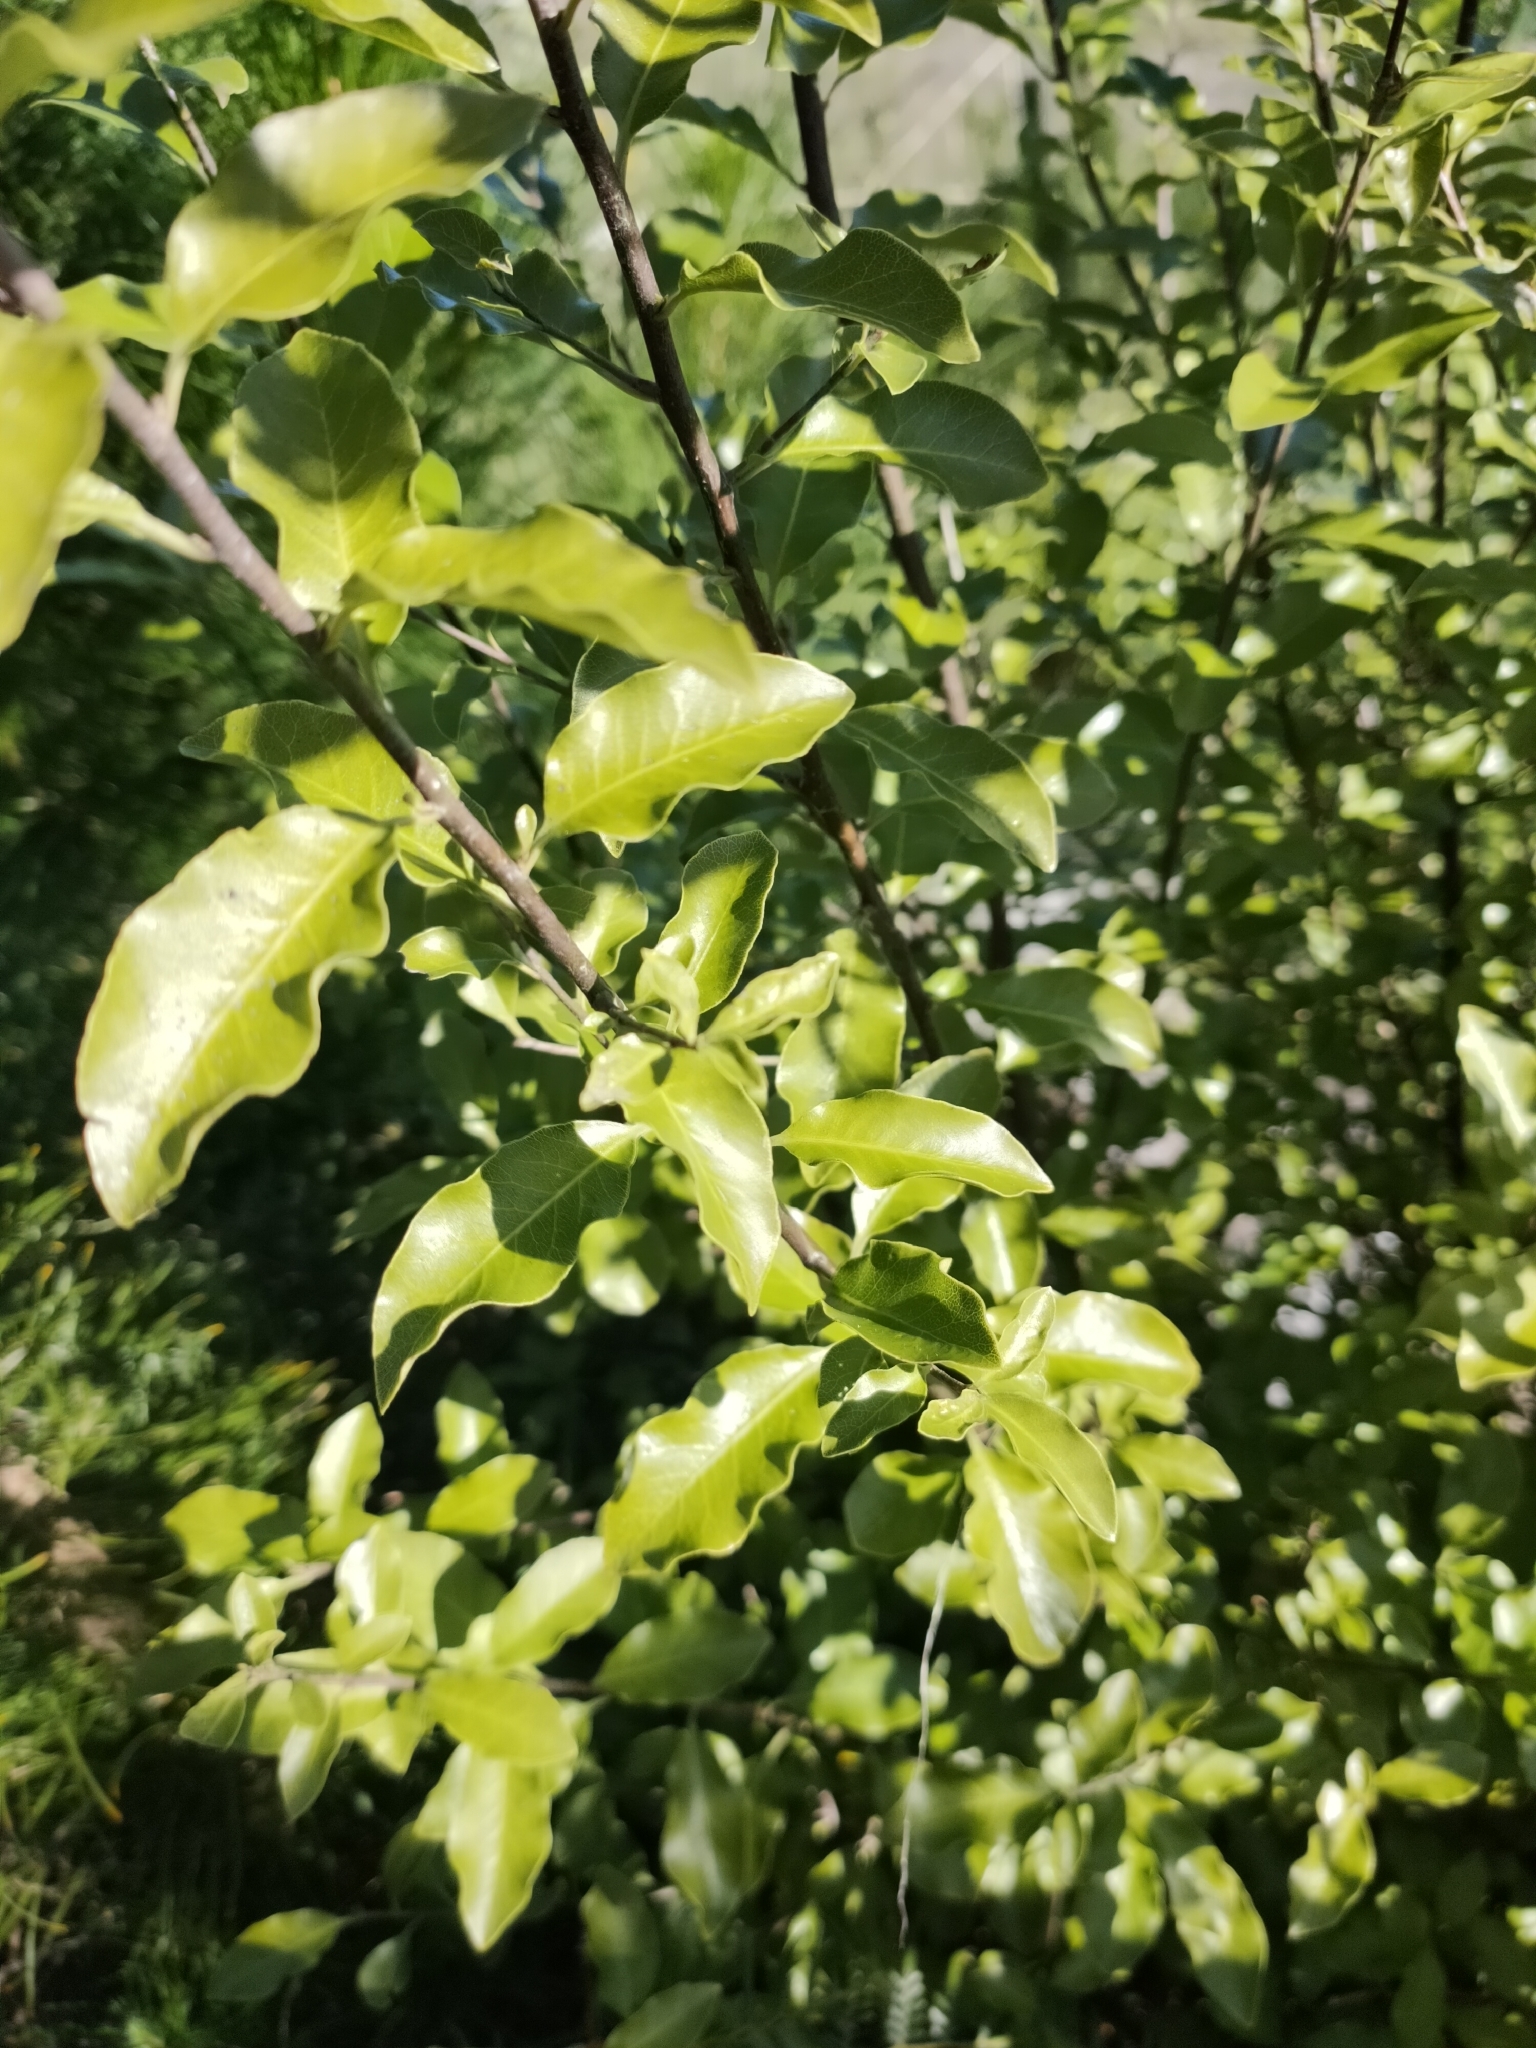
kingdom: Plantae
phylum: Tracheophyta
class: Magnoliopsida
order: Apiales
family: Pittosporaceae
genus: Pittosporum
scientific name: Pittosporum tenuifolium
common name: Kohuhu
